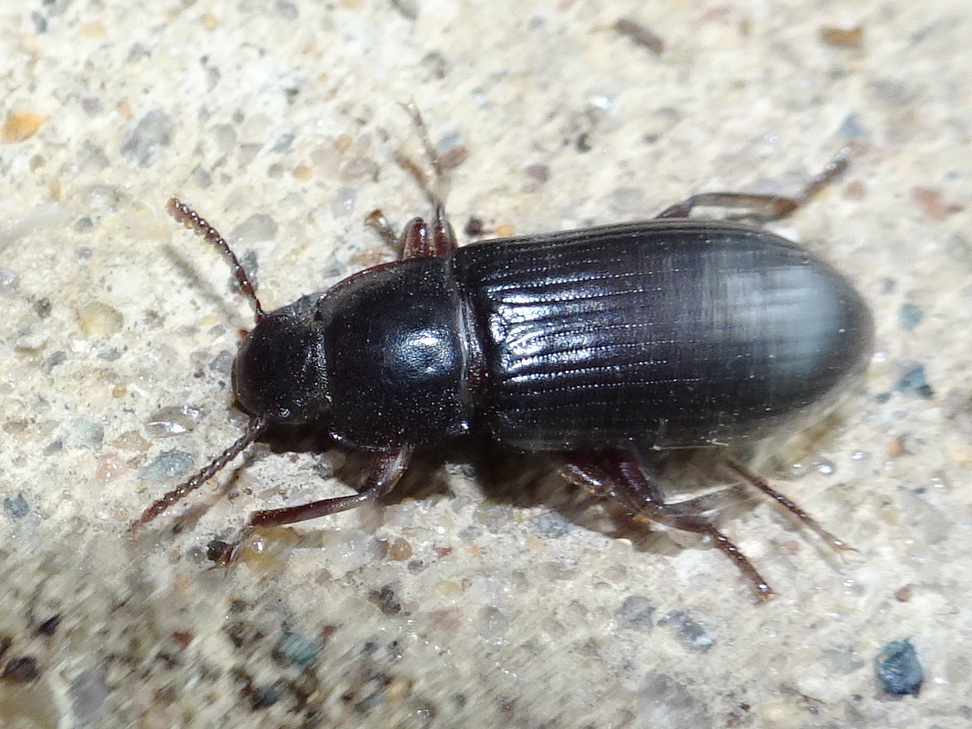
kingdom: Animalia
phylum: Arthropoda
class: Insecta
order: Coleoptera
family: Tenebrionidae
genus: Neatus
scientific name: Neatus tenebrioides
